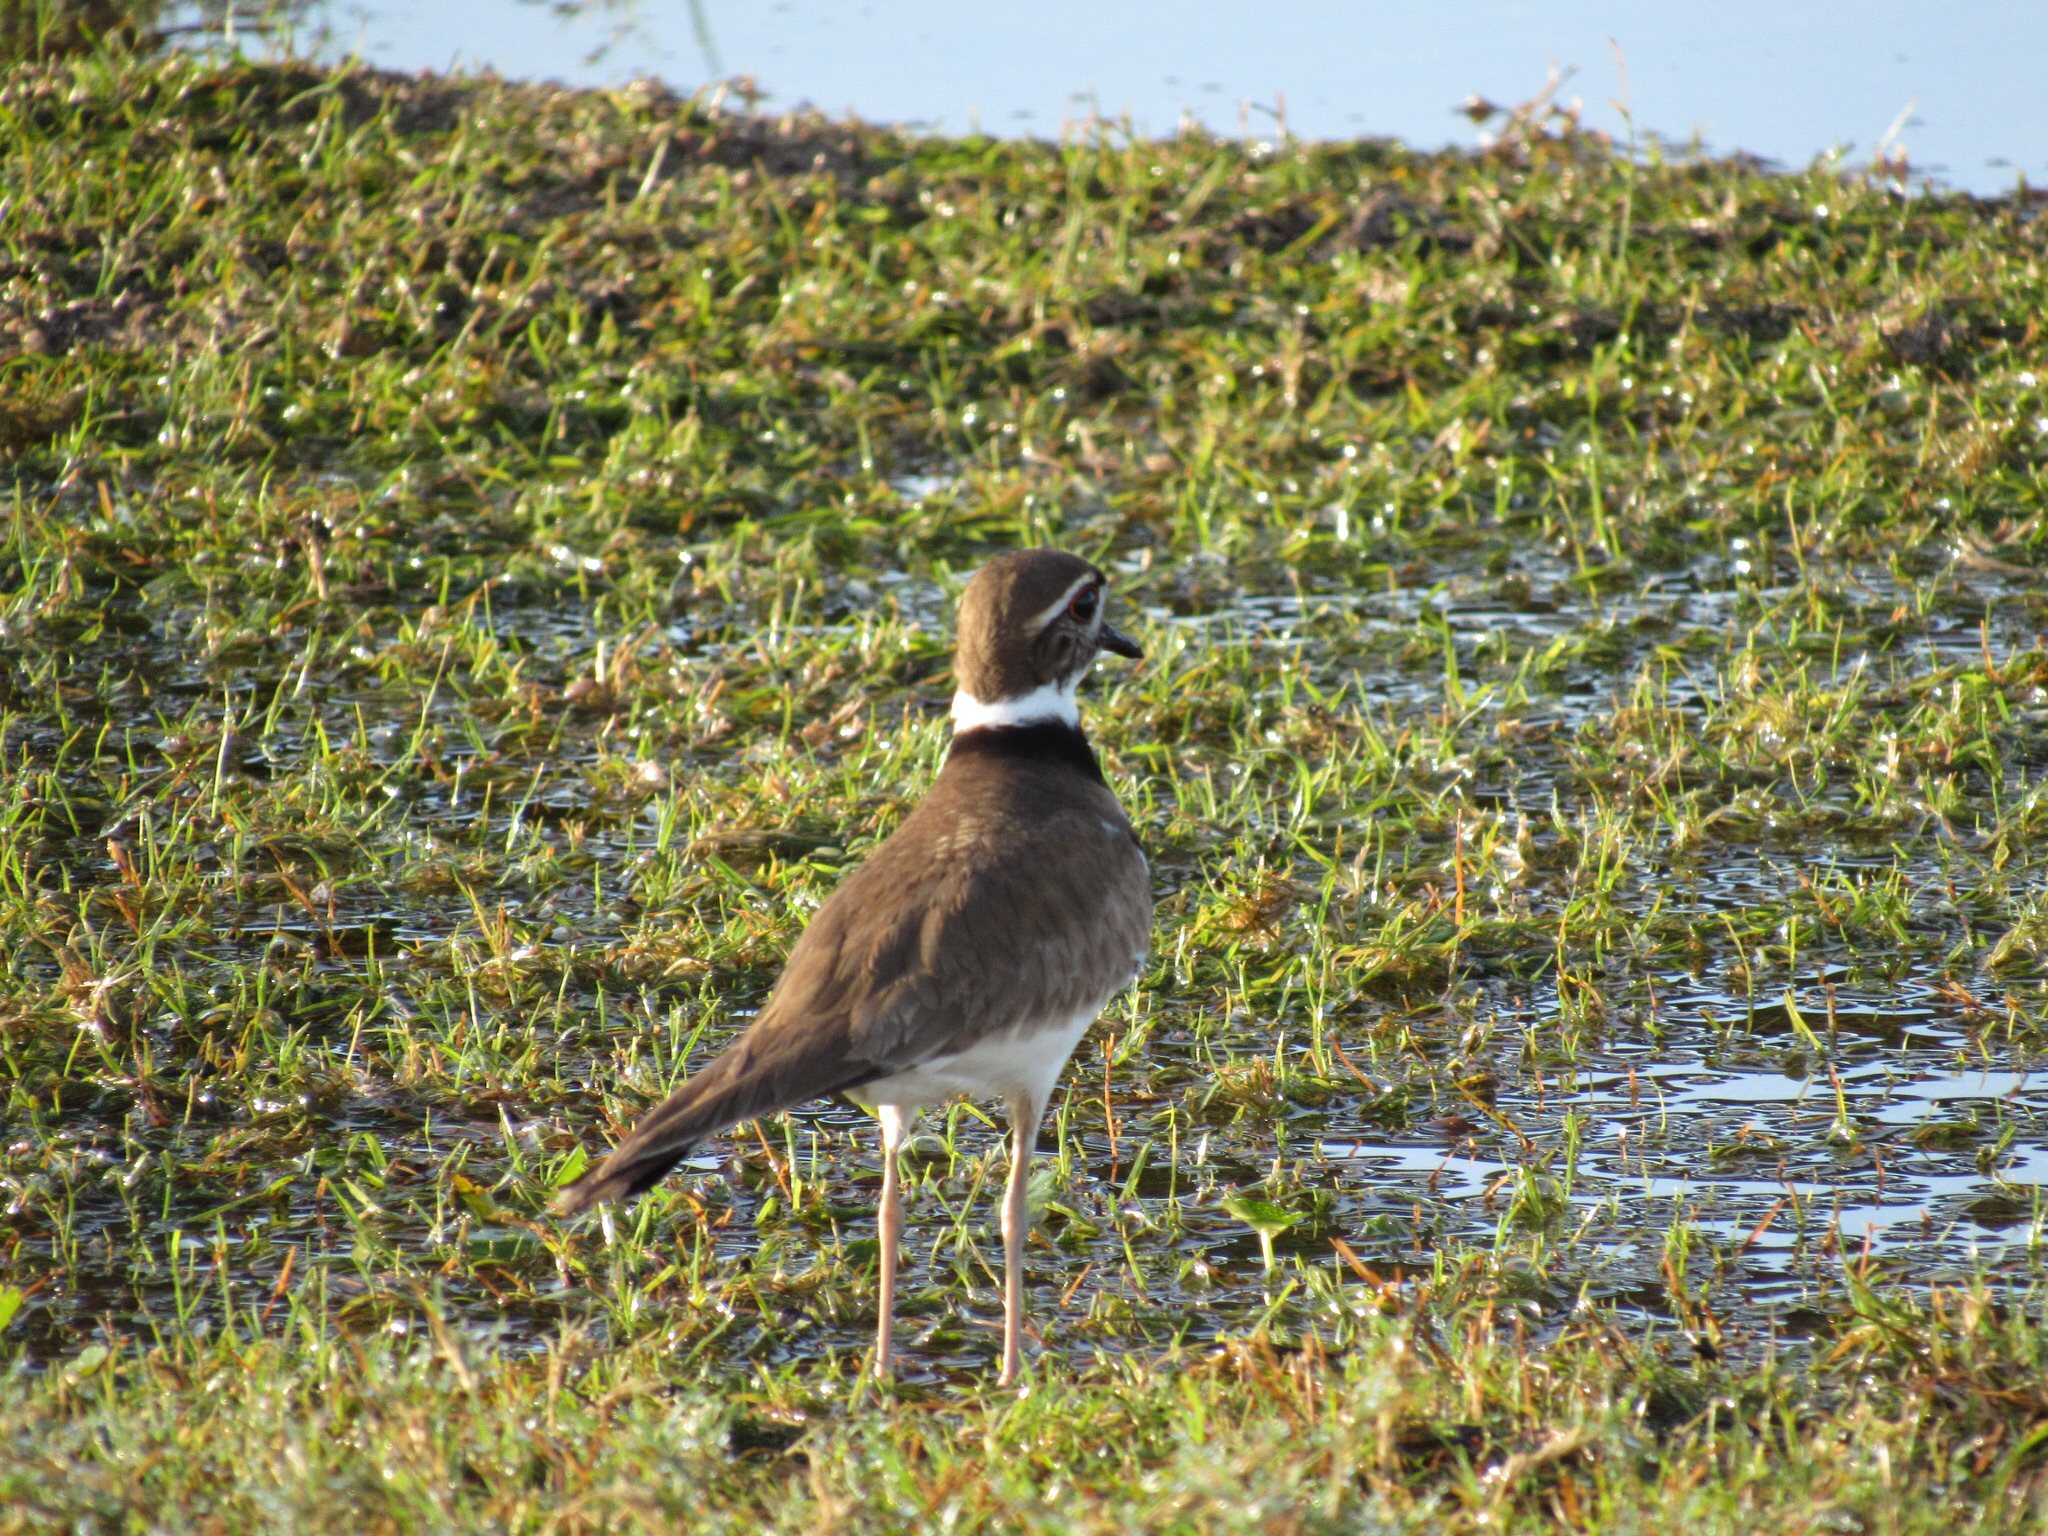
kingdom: Animalia
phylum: Chordata
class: Aves
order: Charadriiformes
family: Charadriidae
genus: Charadrius
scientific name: Charadrius vociferus
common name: Killdeer
